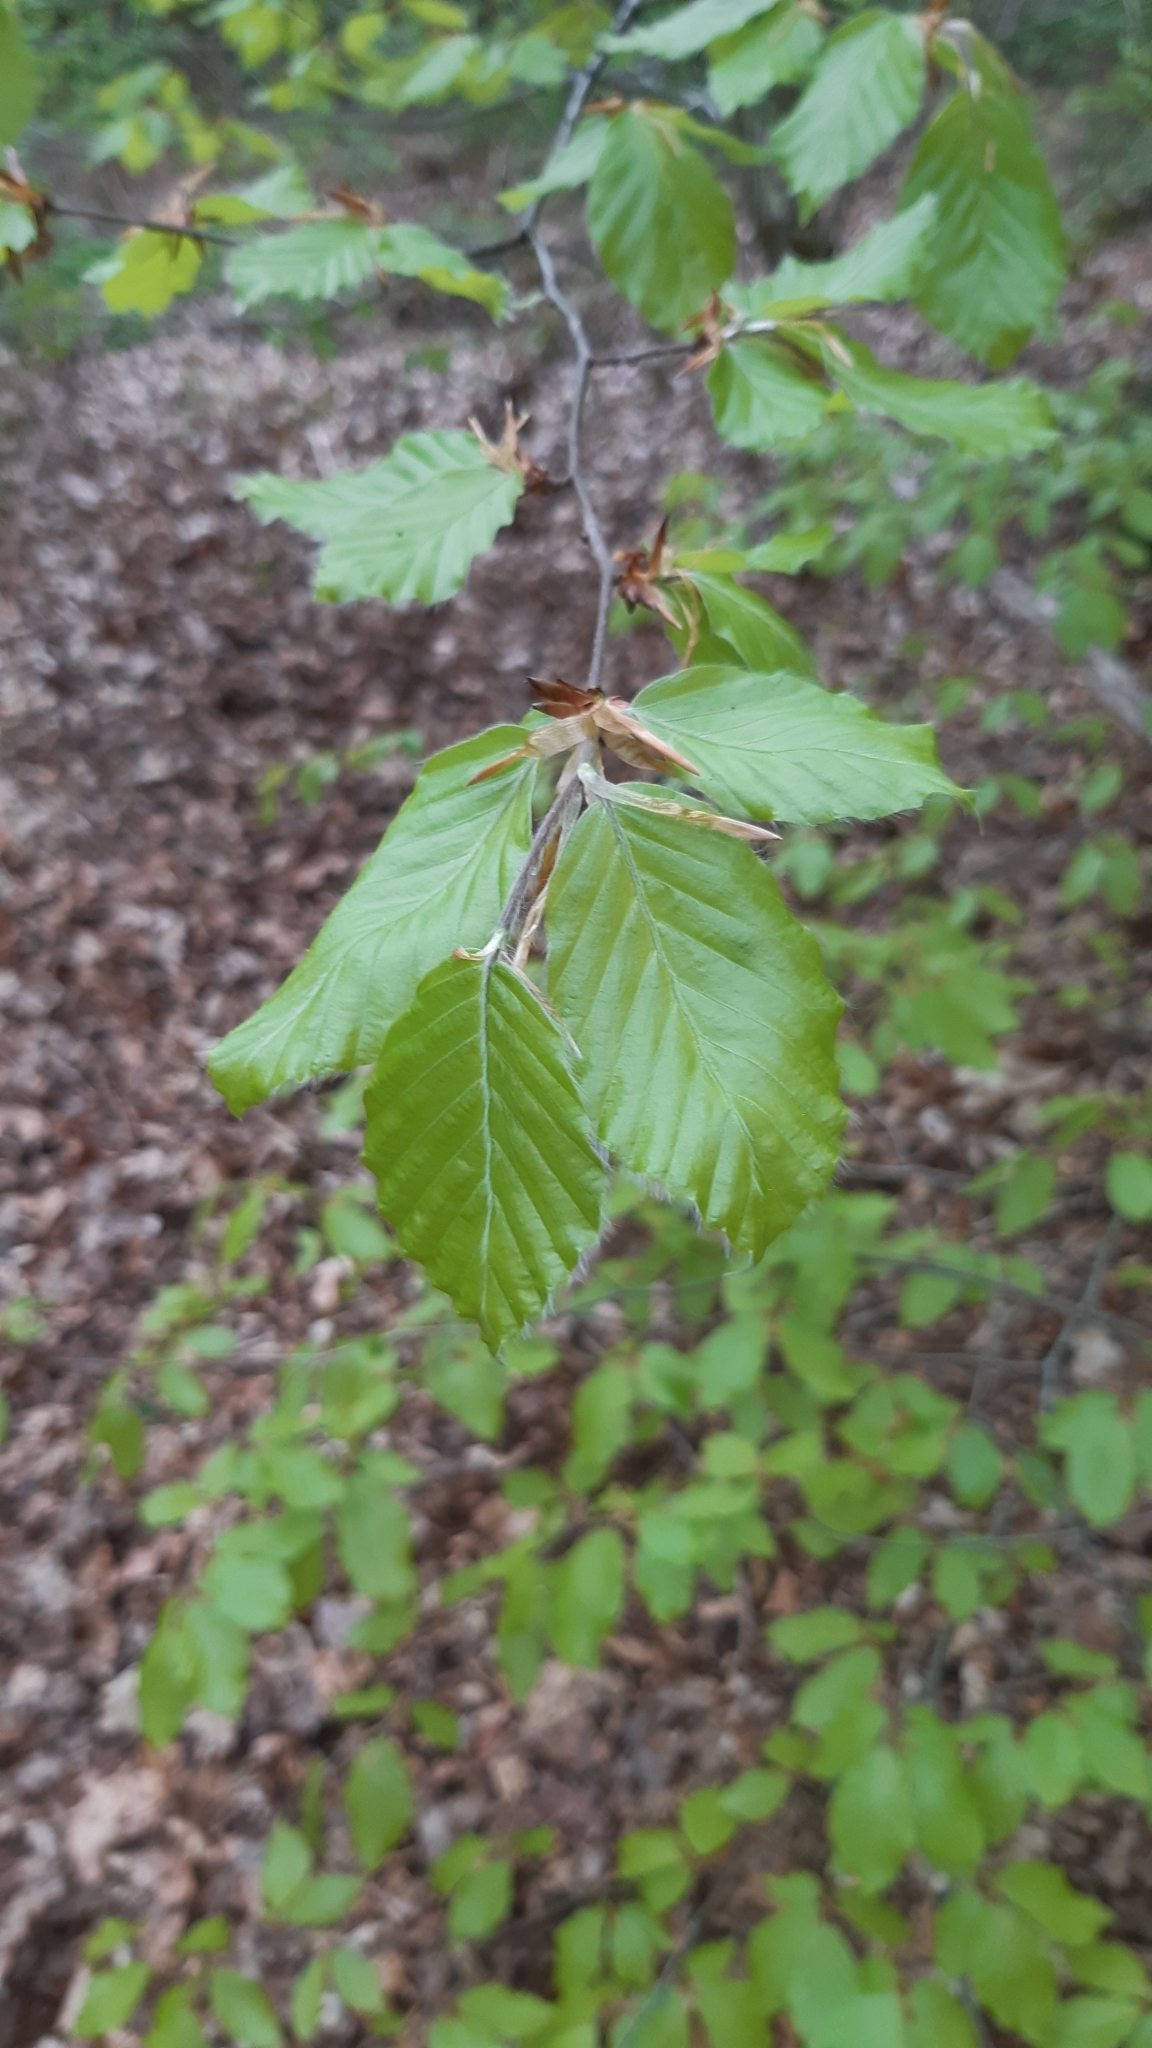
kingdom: Plantae
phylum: Tracheophyta
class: Magnoliopsida
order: Fagales
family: Fagaceae
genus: Fagus
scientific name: Fagus sylvatica
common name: Beech
